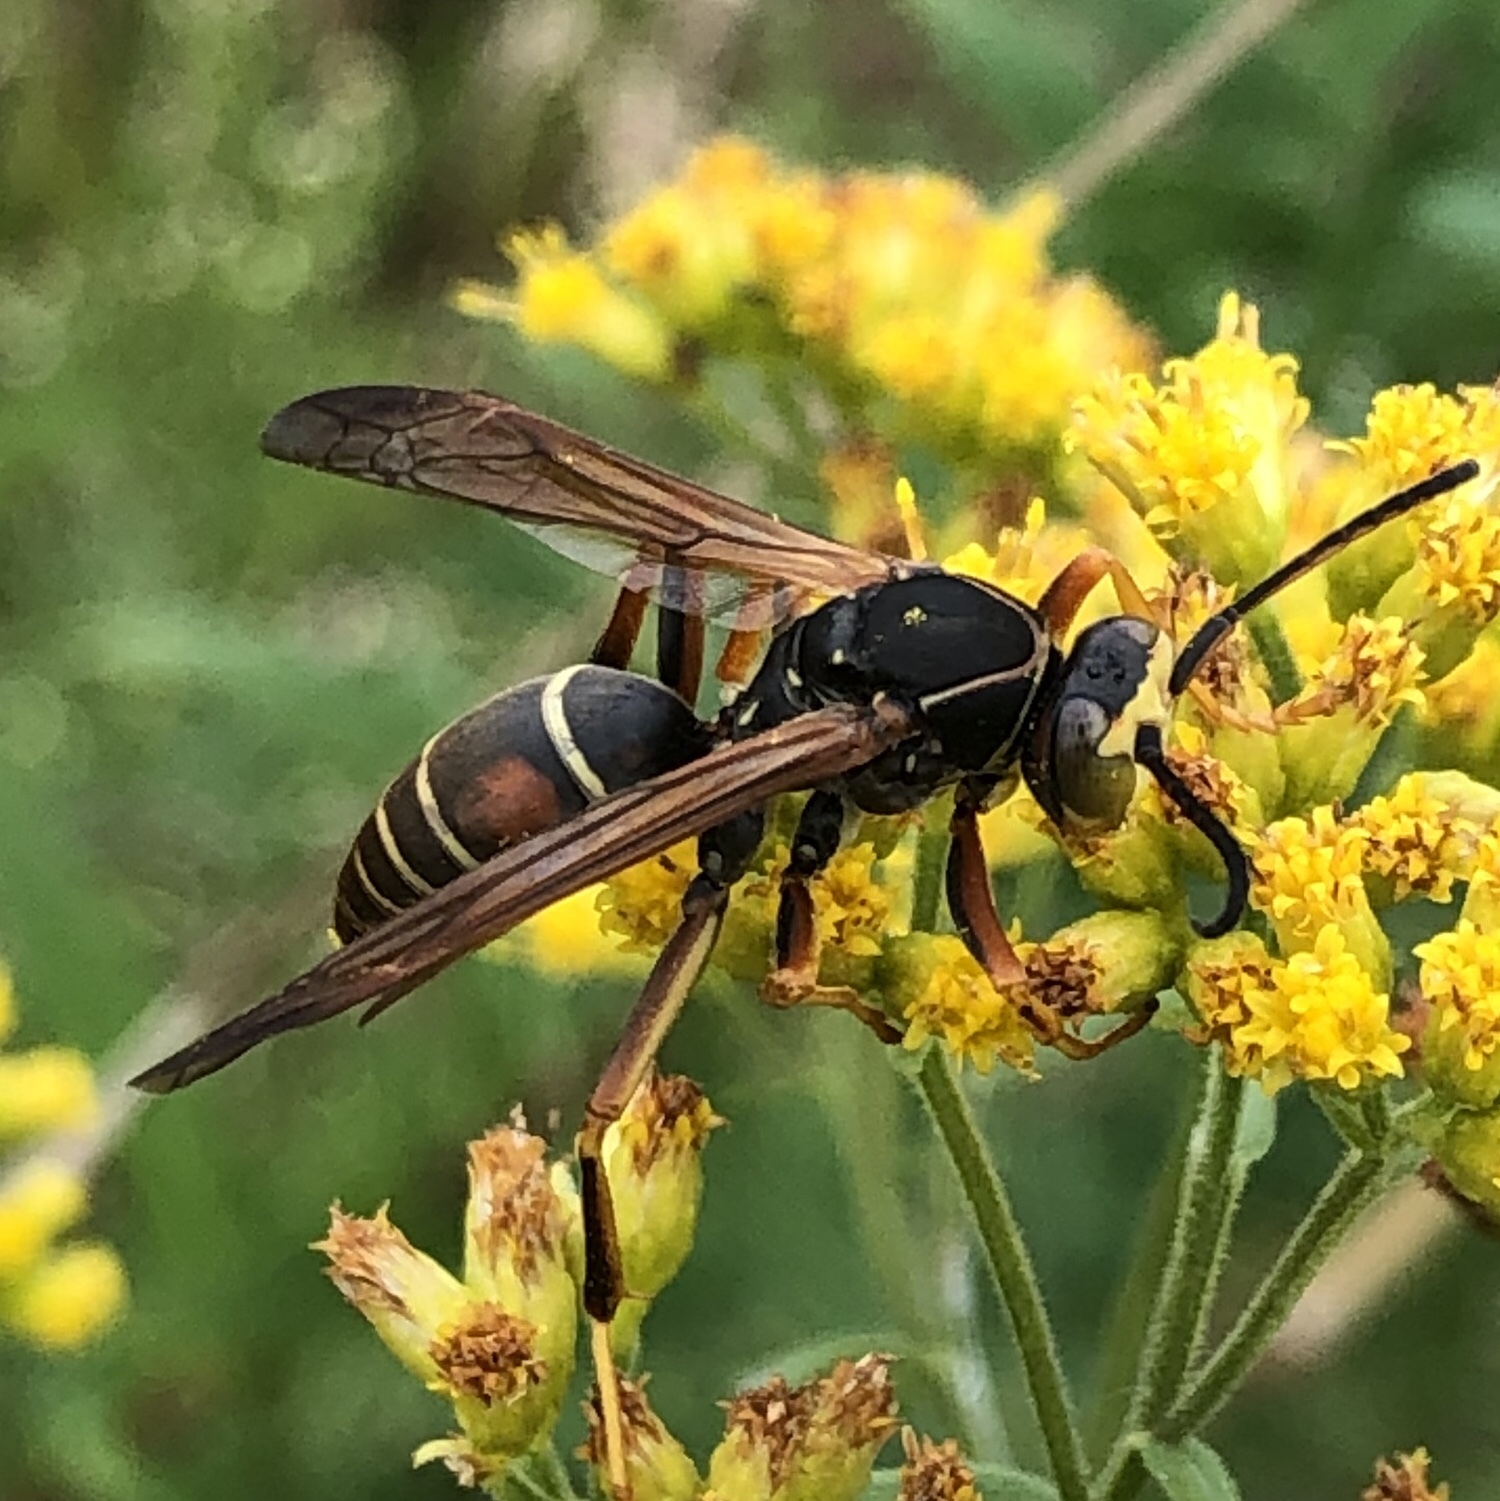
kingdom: Animalia
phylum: Arthropoda
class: Insecta
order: Hymenoptera
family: Eumenidae
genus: Polistes
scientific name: Polistes fuscatus
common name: Dark paper wasp
